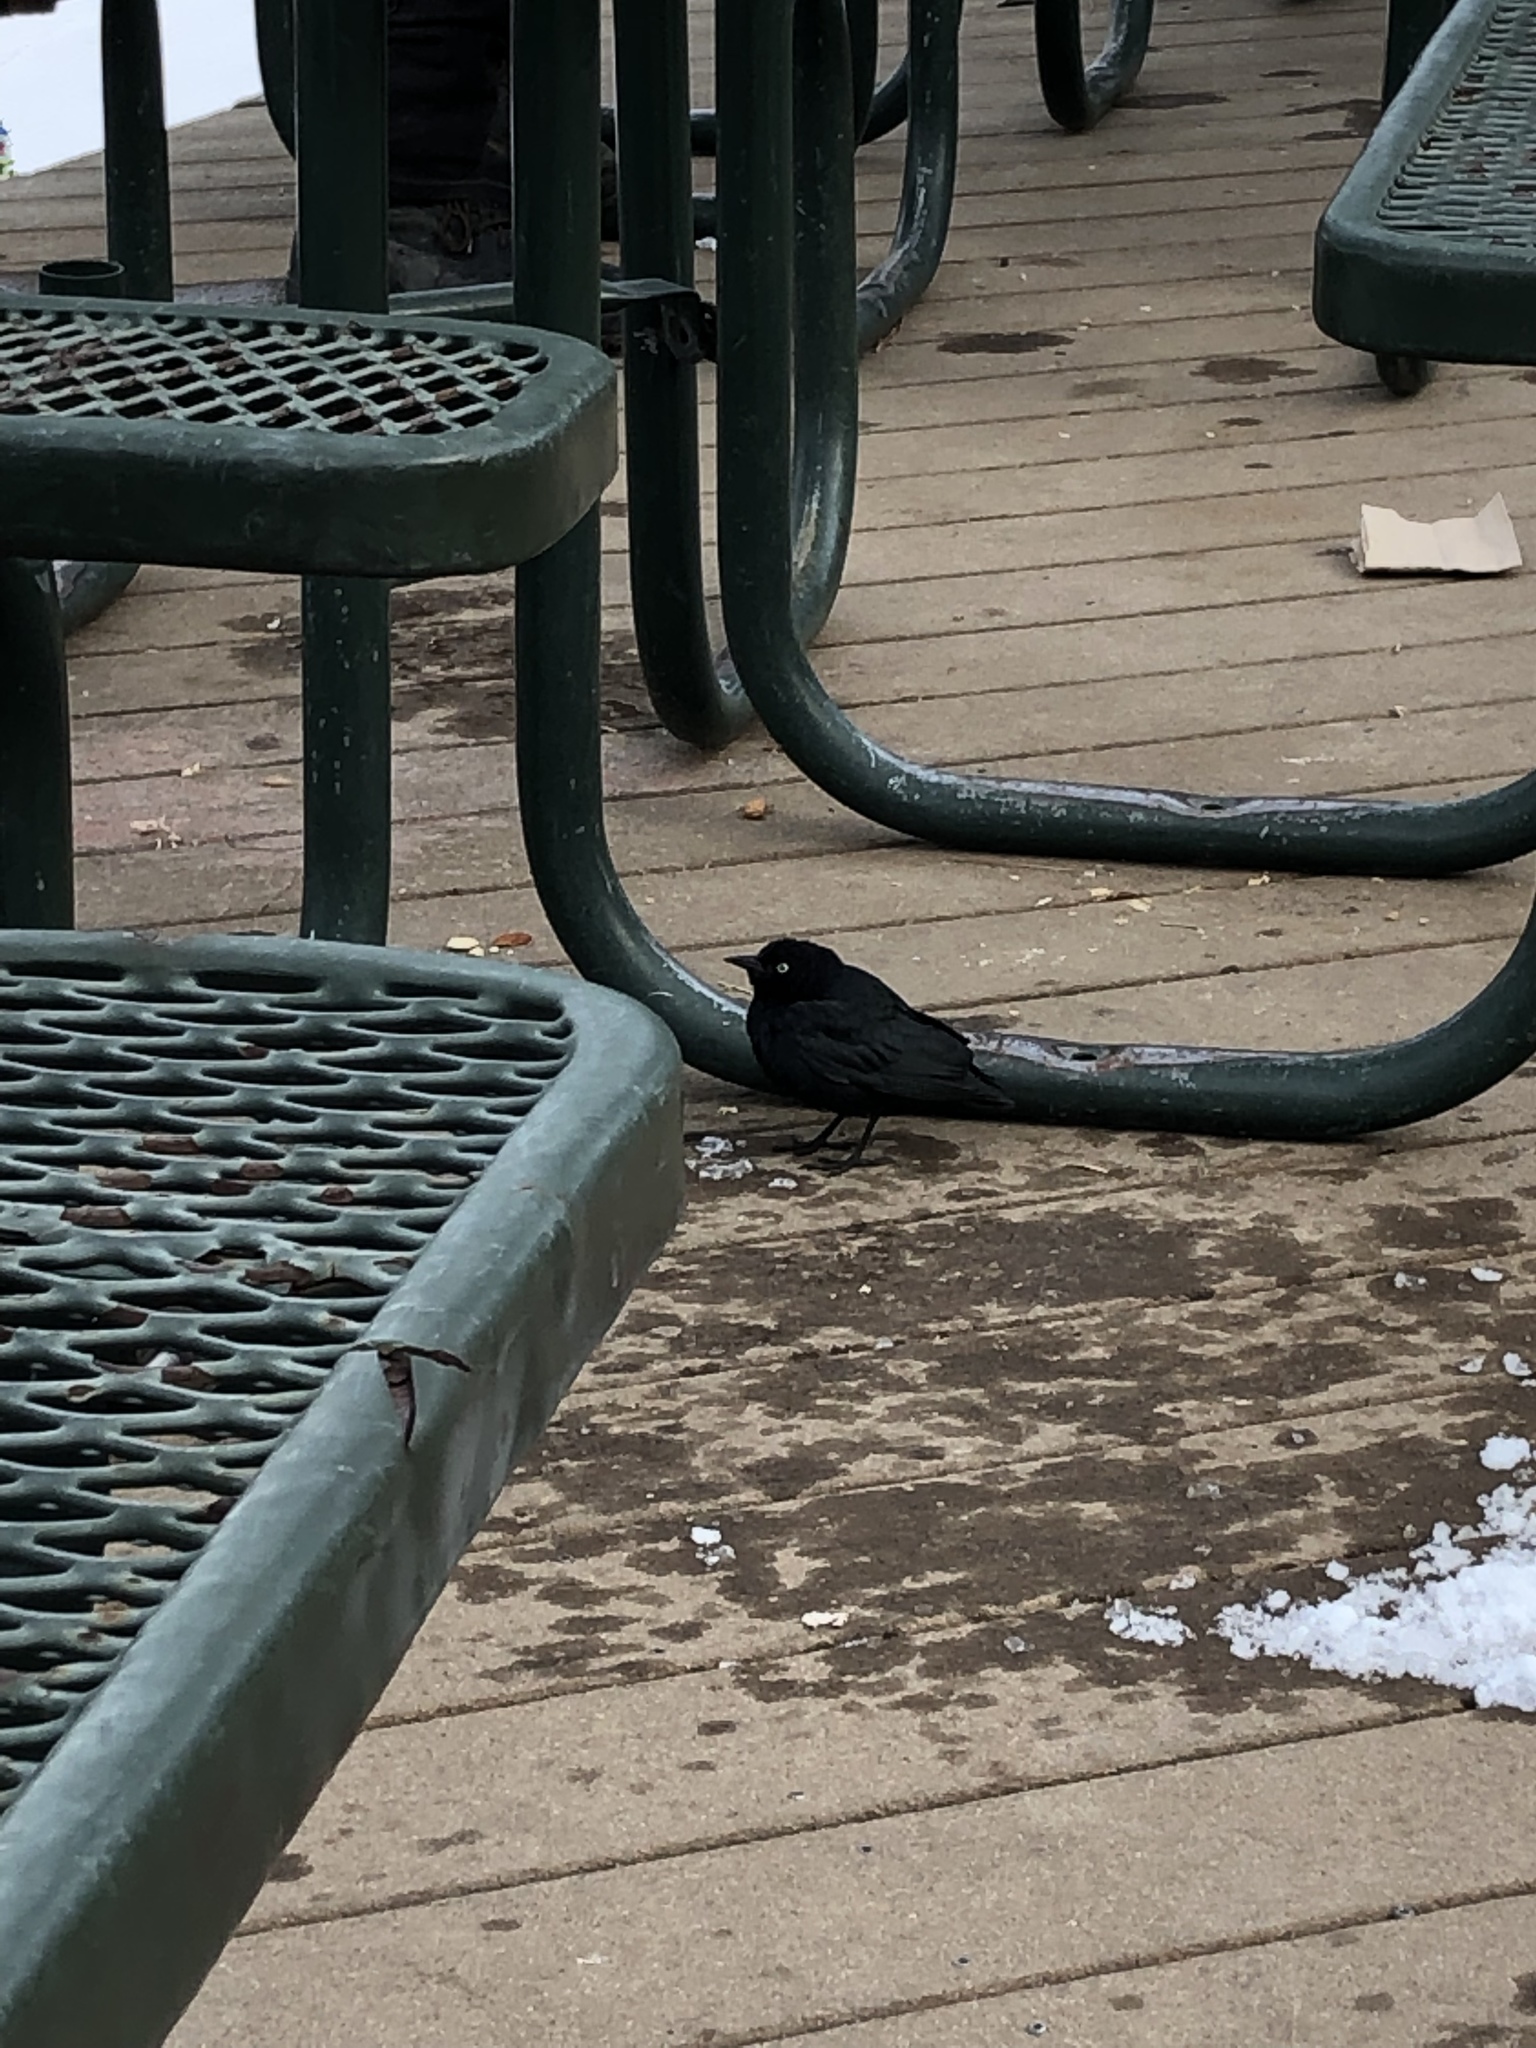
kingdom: Animalia
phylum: Chordata
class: Aves
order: Passeriformes
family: Icteridae
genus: Euphagus
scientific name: Euphagus cyanocephalus
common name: Brewer's blackbird
